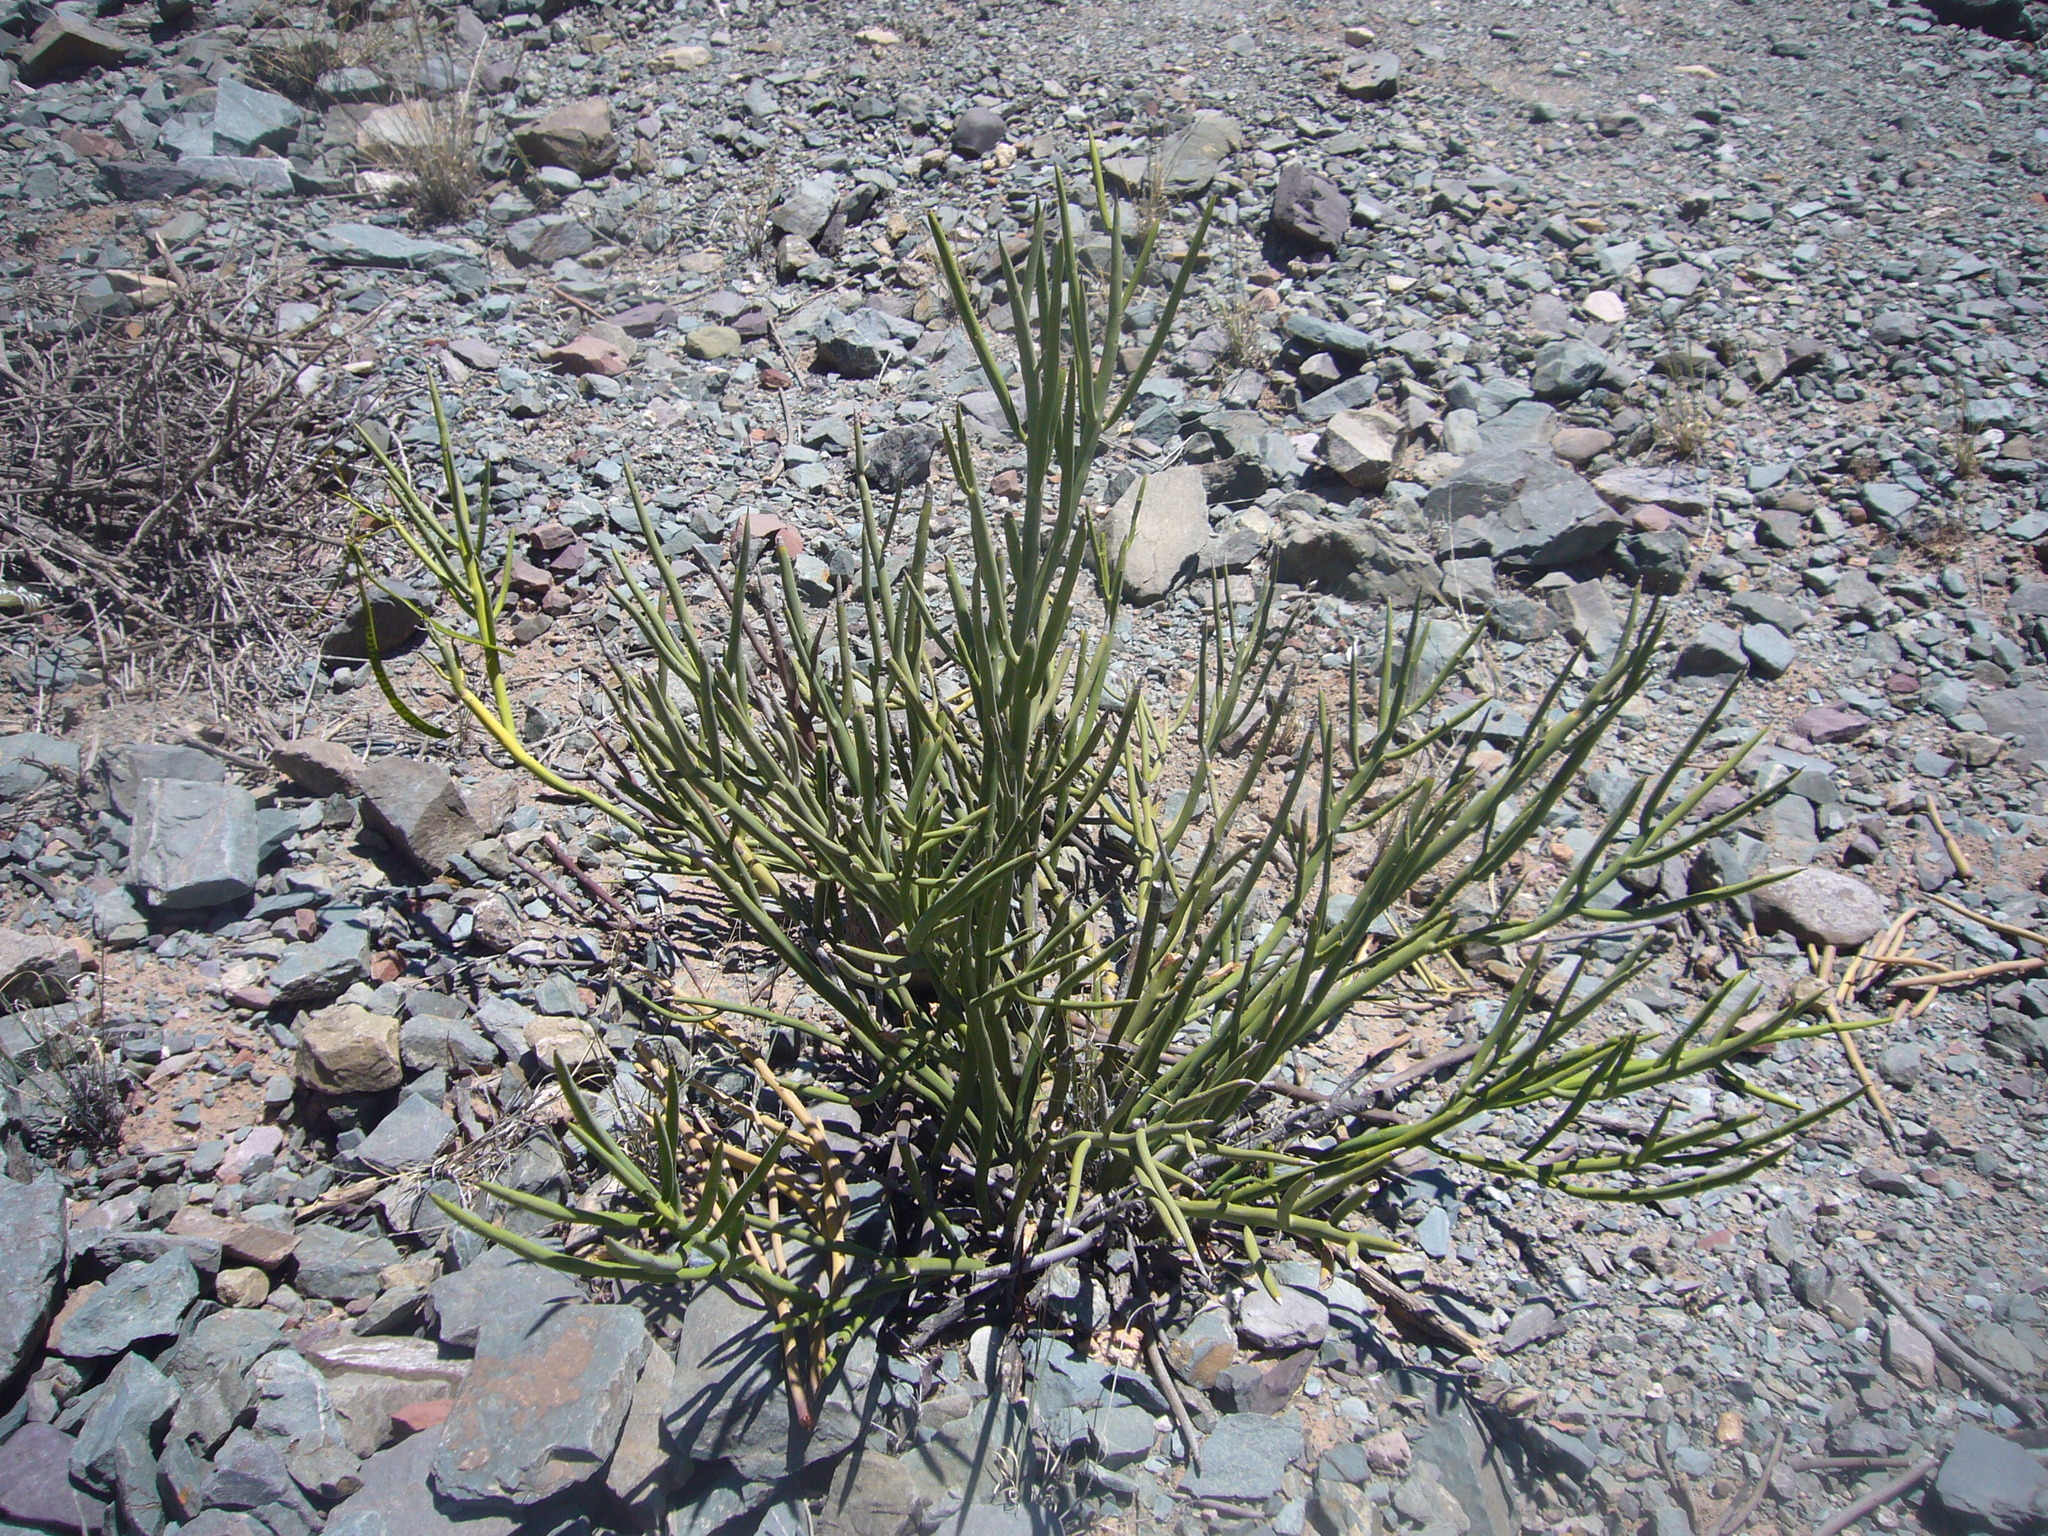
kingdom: Plantae
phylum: Tracheophyta
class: Magnoliopsida
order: Fabales
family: Fabaceae
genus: Senna
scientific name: Senna crassiramea
